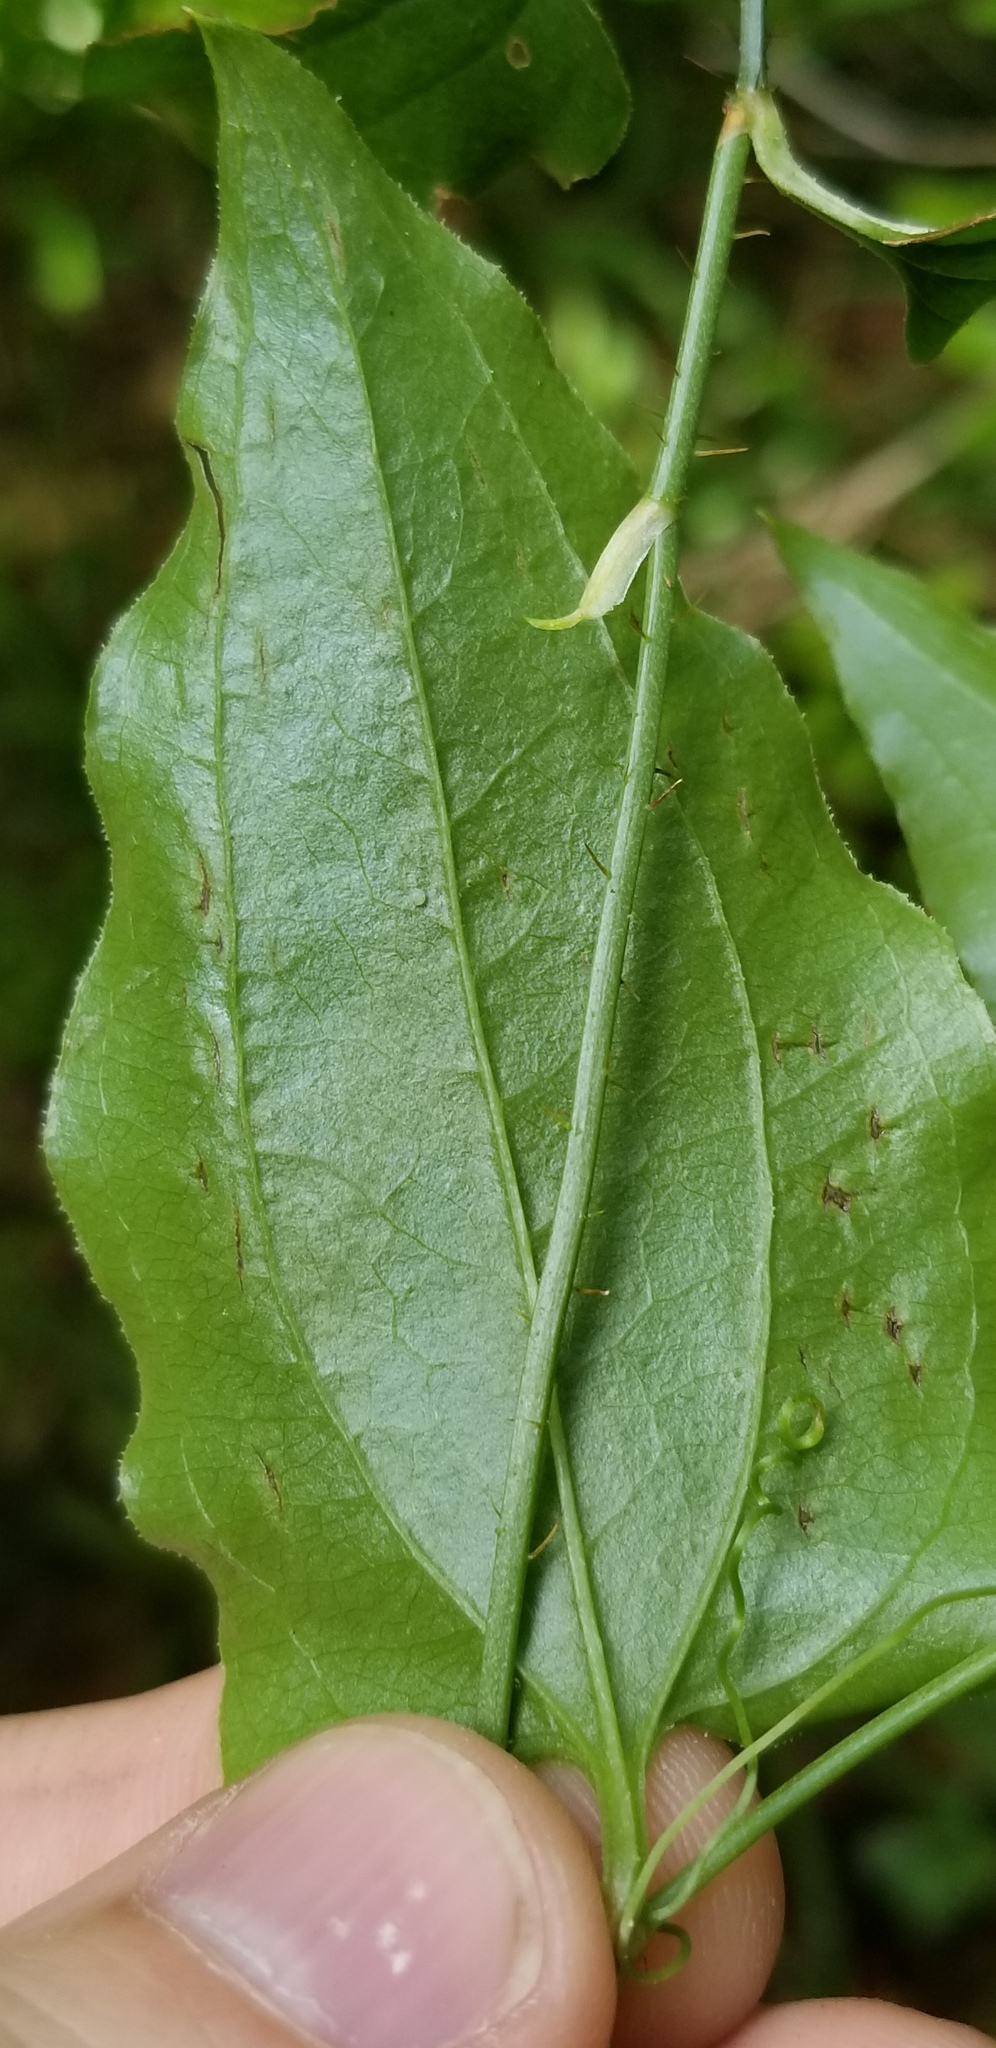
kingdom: Plantae
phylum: Tracheophyta
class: Liliopsida
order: Liliales
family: Smilacaceae
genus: Smilax
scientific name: Smilax tamnoides
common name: Hellfetter
